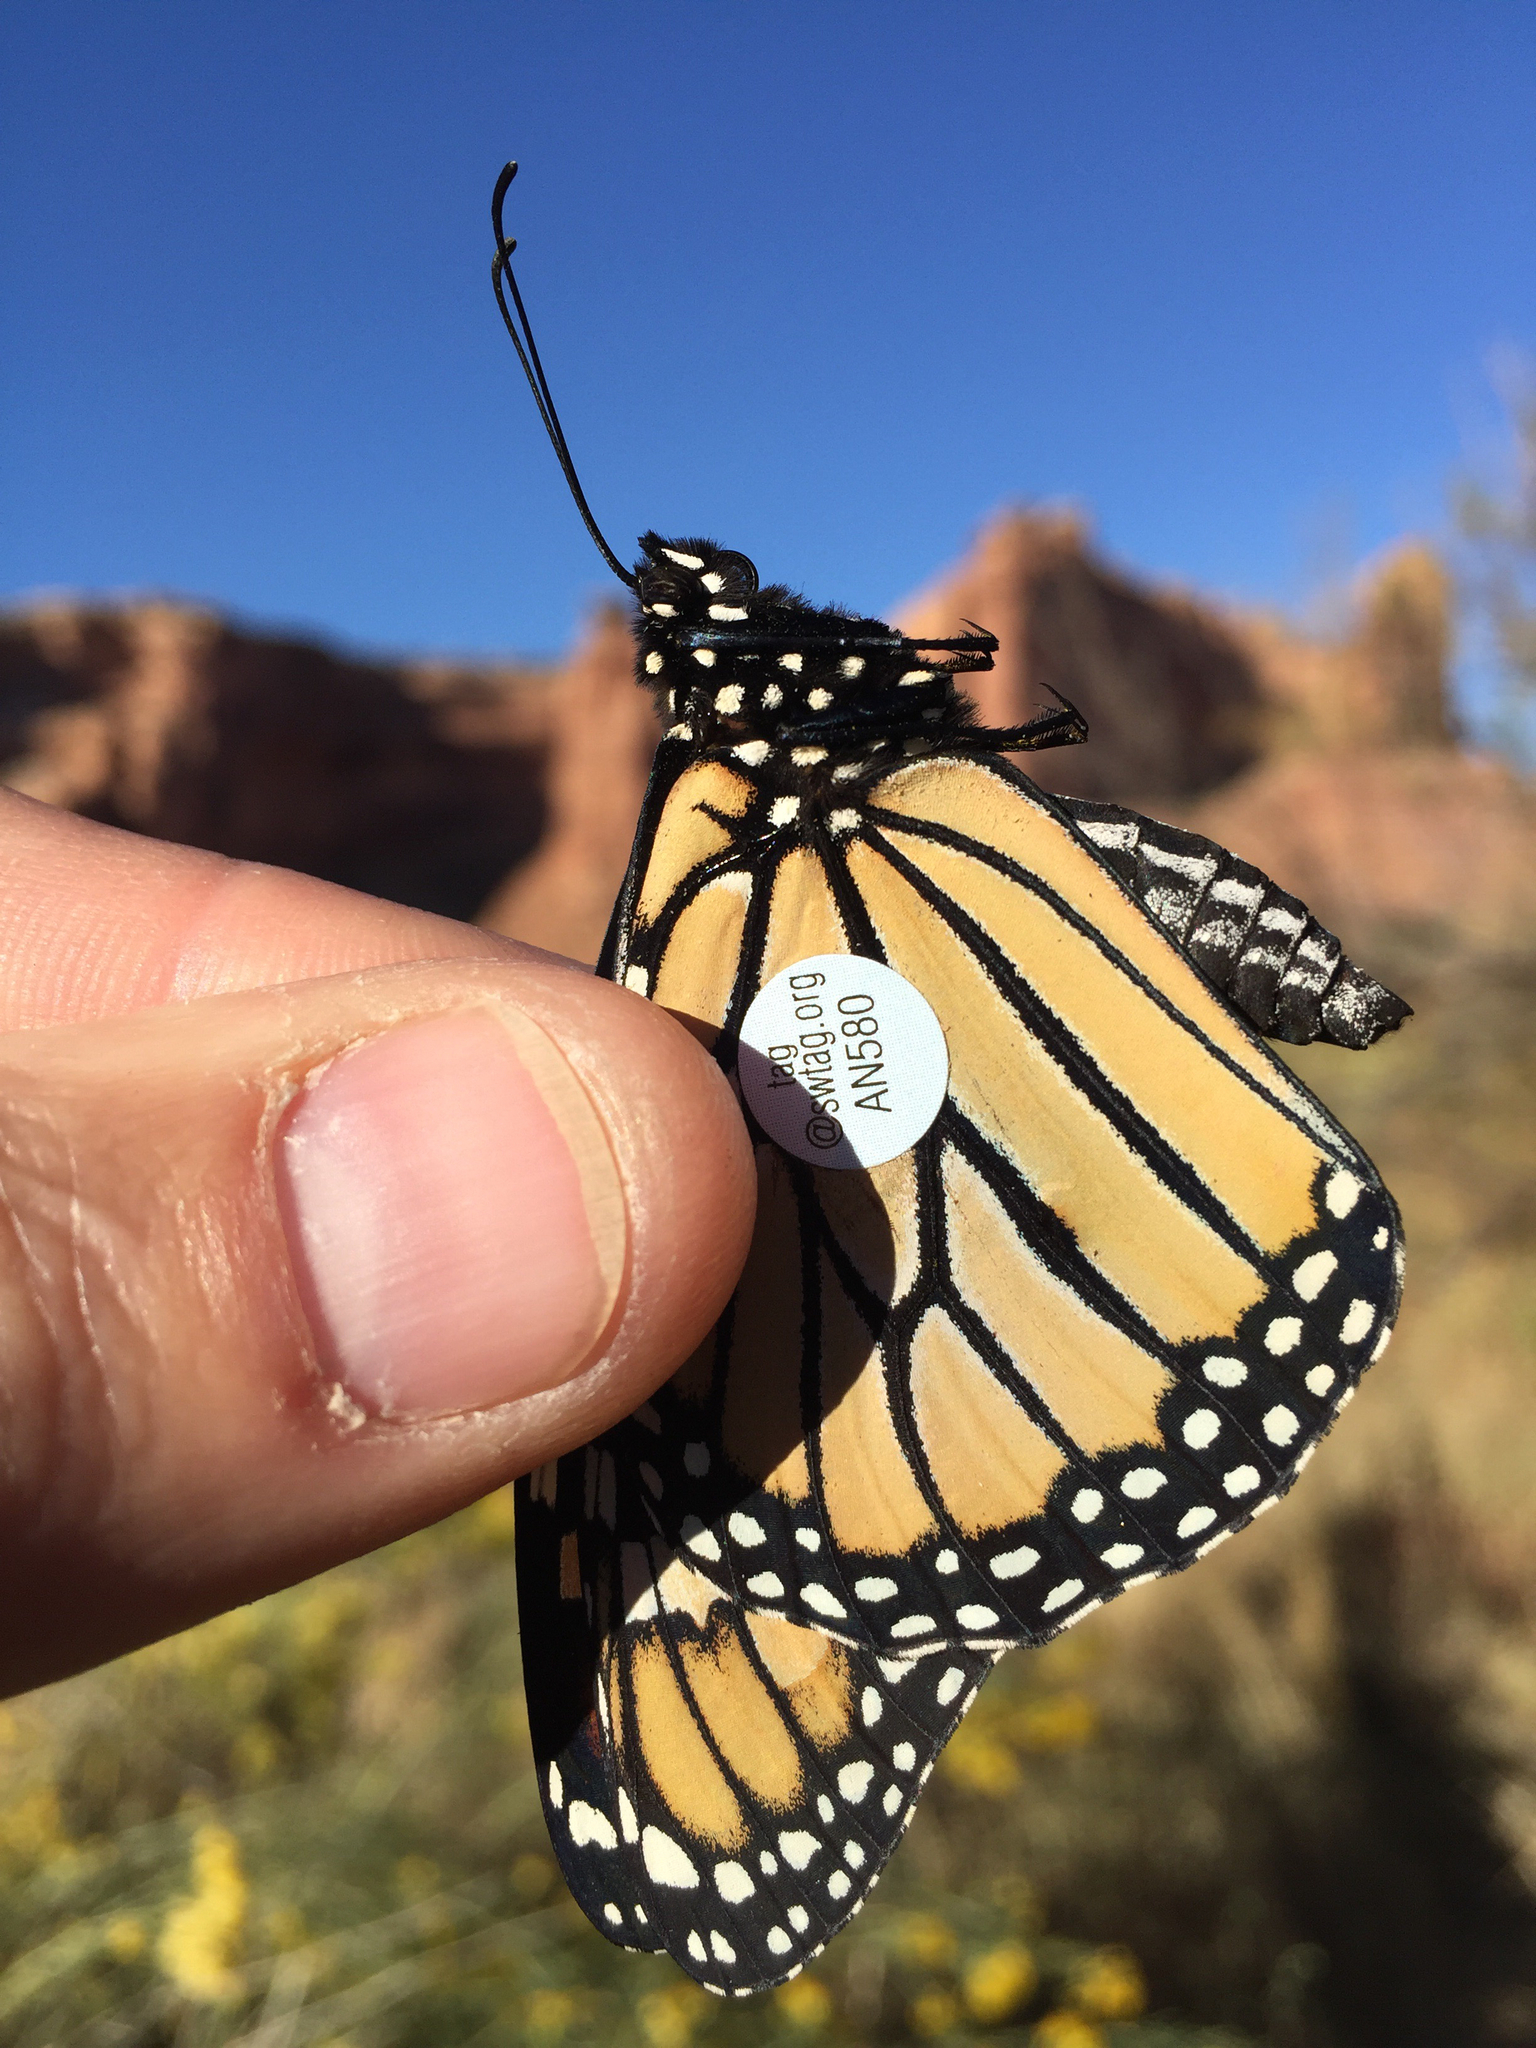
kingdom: Animalia
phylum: Arthropoda
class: Insecta
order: Lepidoptera
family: Nymphalidae
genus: Danaus
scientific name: Danaus plexippus
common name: Monarch
